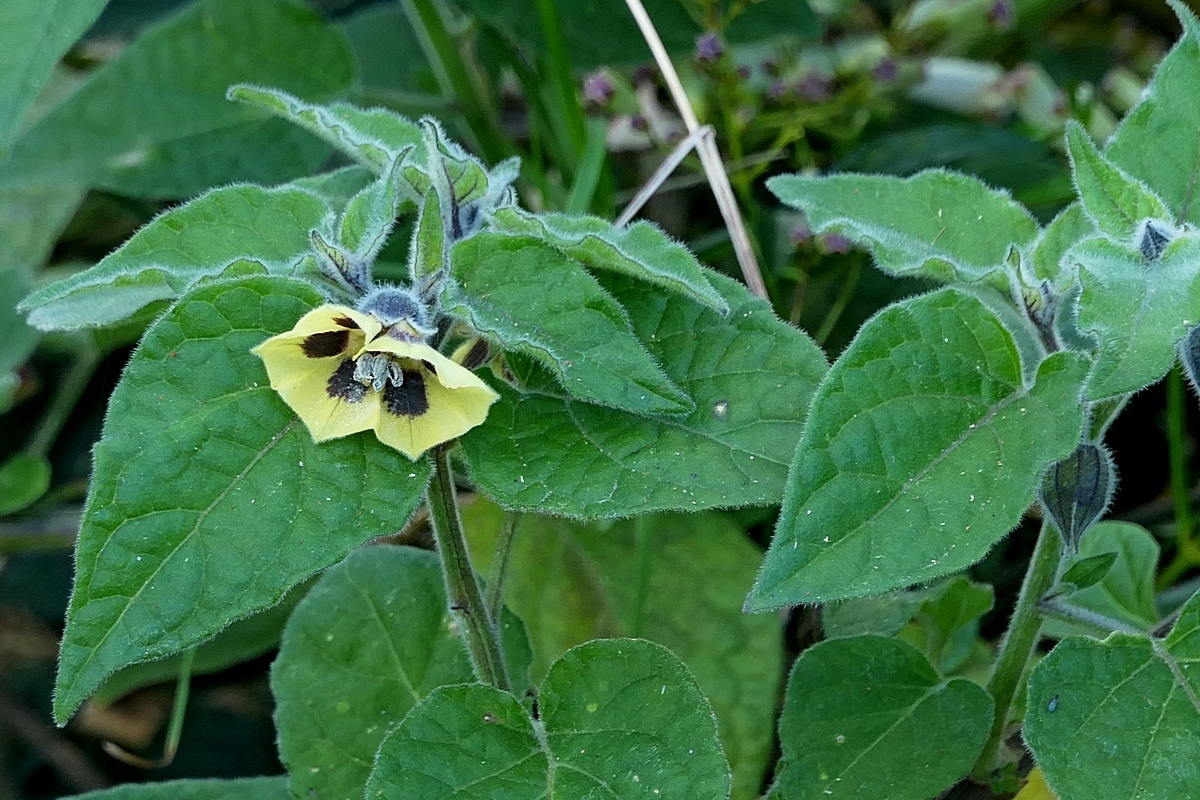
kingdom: Plantae
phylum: Tracheophyta
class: Magnoliopsida
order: Solanales
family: Solanaceae
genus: Physalis
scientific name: Physalis peruviana
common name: Cape-gooseberry
